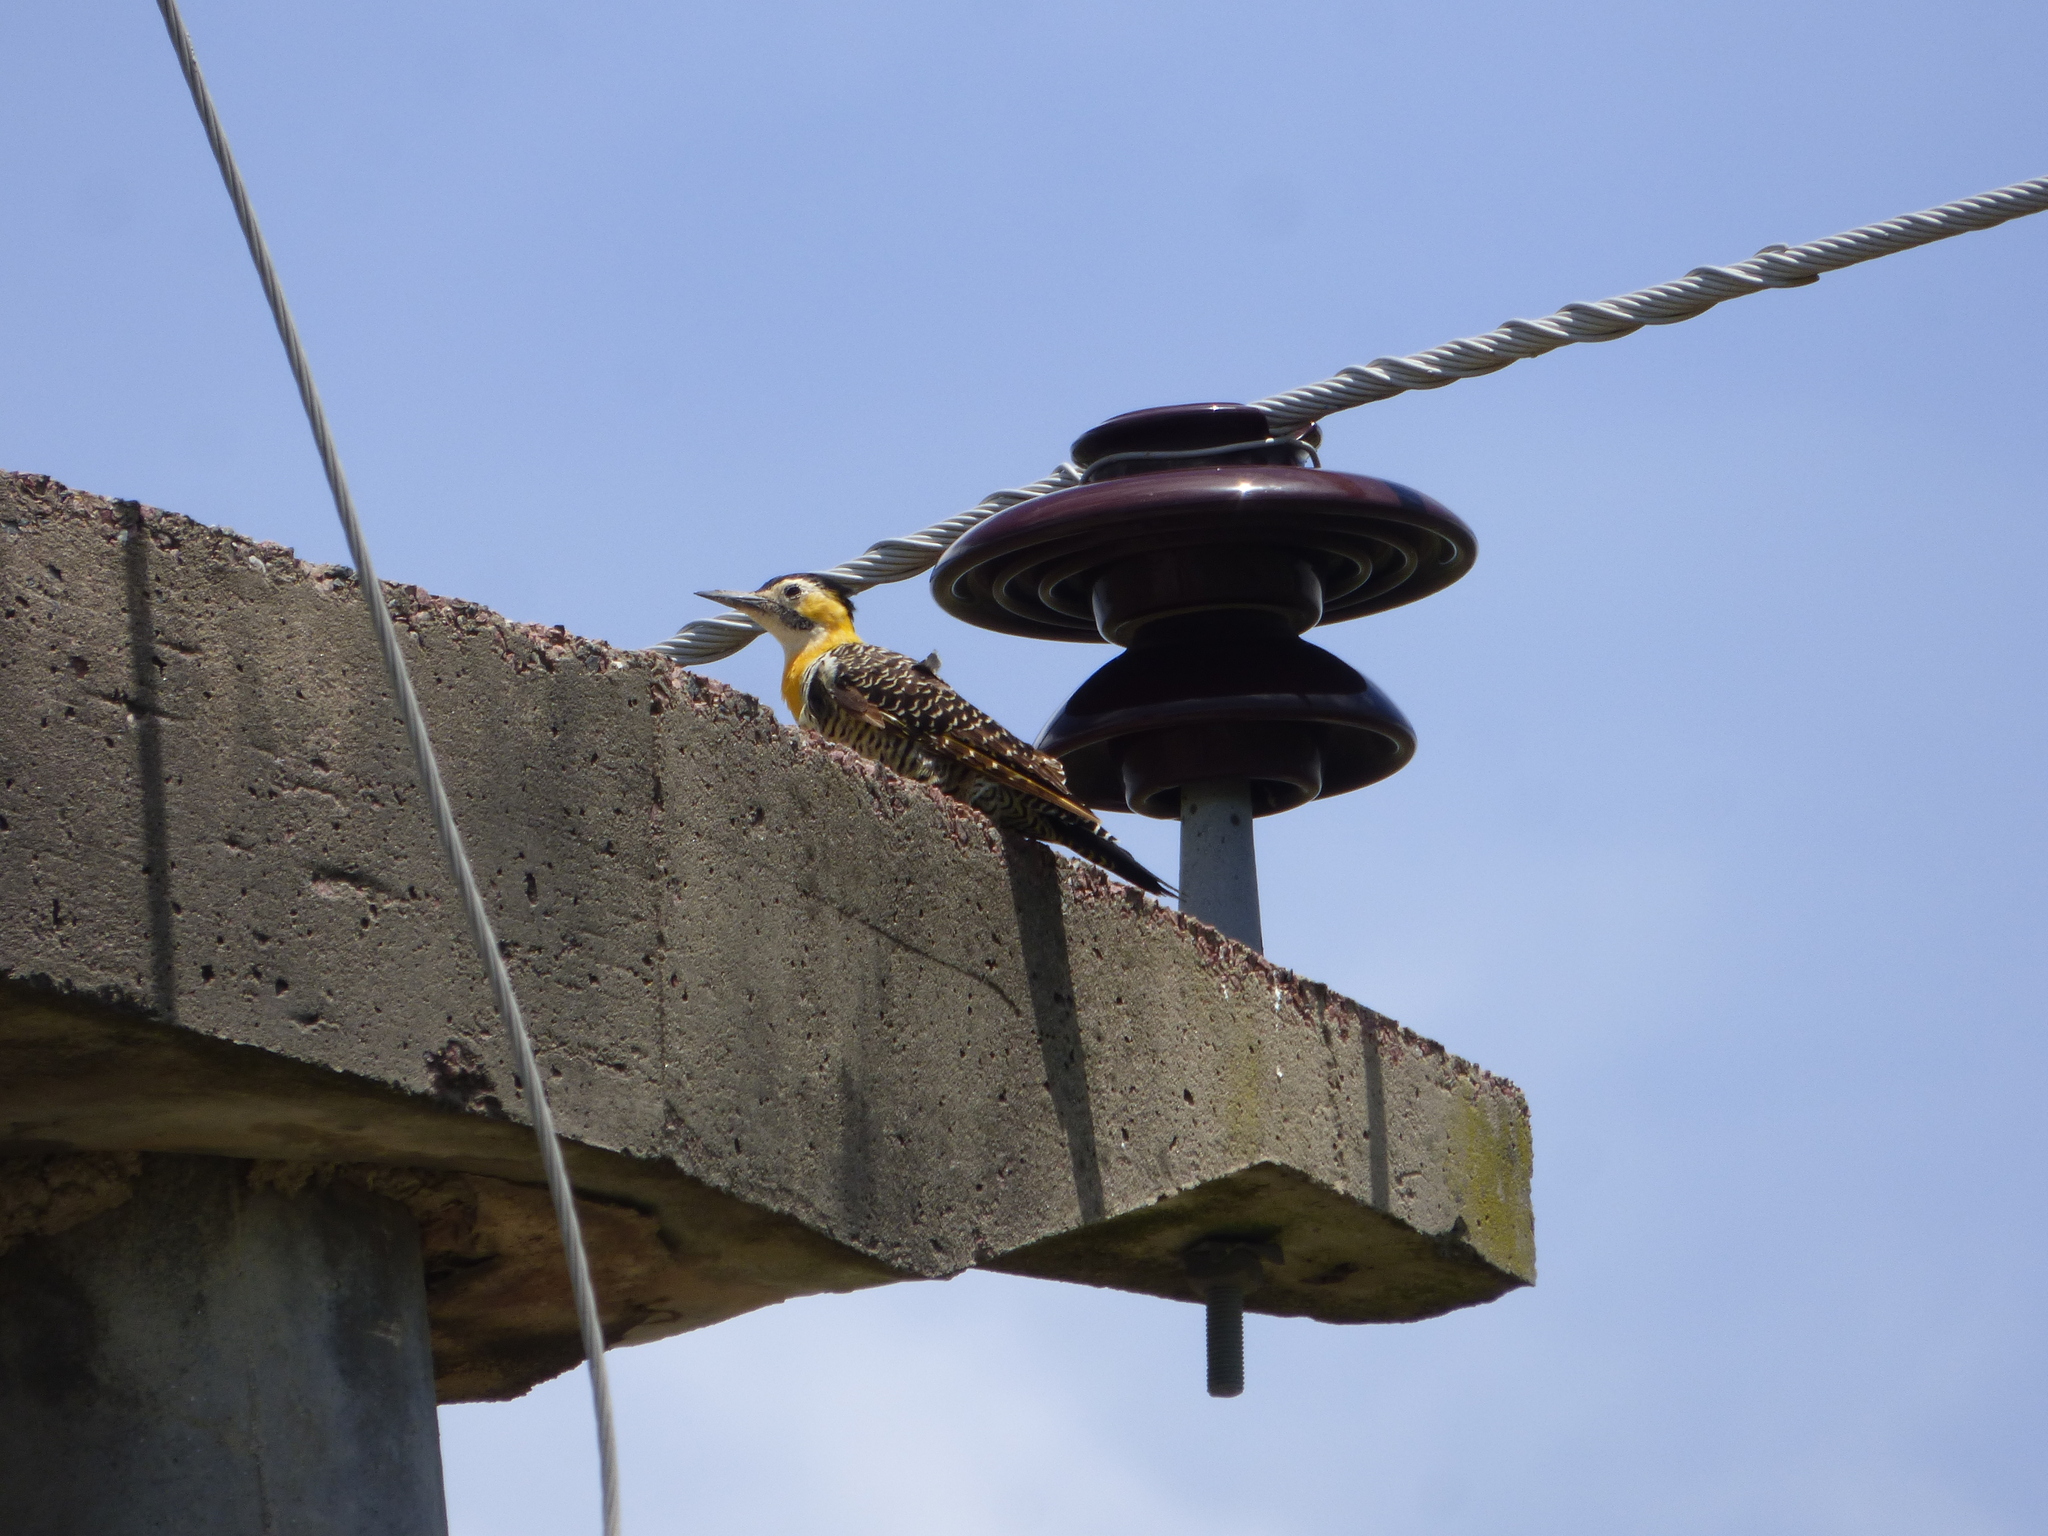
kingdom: Animalia
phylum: Chordata
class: Aves
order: Piciformes
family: Picidae
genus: Colaptes
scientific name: Colaptes campestris
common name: Campo flicker
